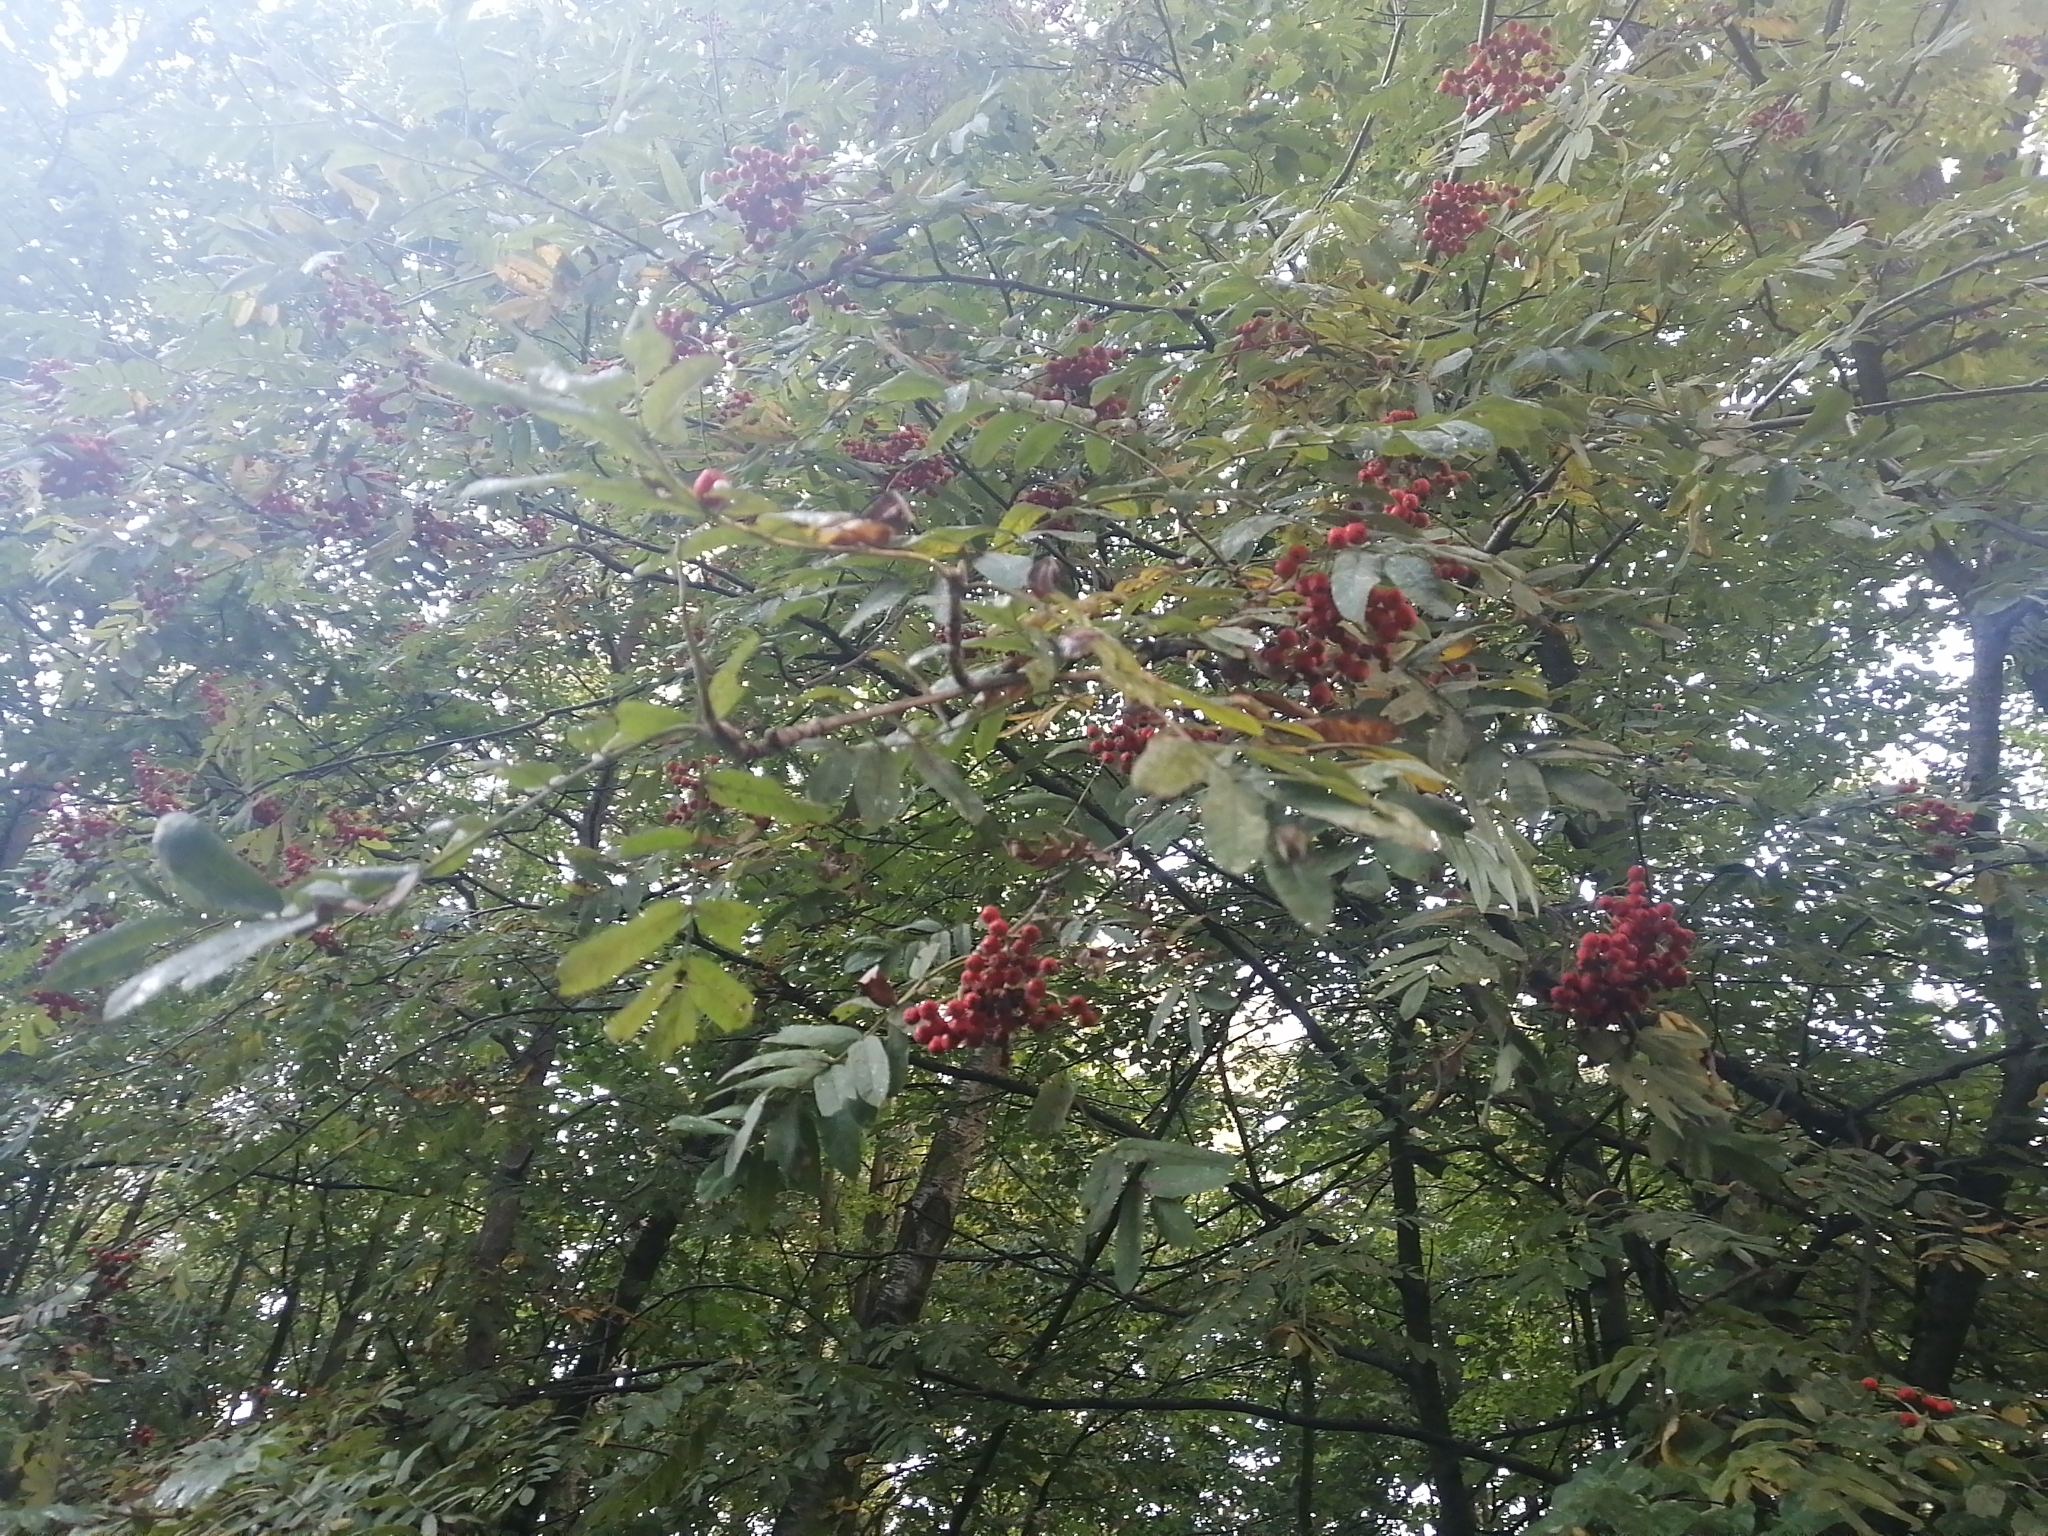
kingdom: Plantae
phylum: Tracheophyta
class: Magnoliopsida
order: Rosales
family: Rosaceae
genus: Sorbus
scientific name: Sorbus aucuparia
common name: Rowan
